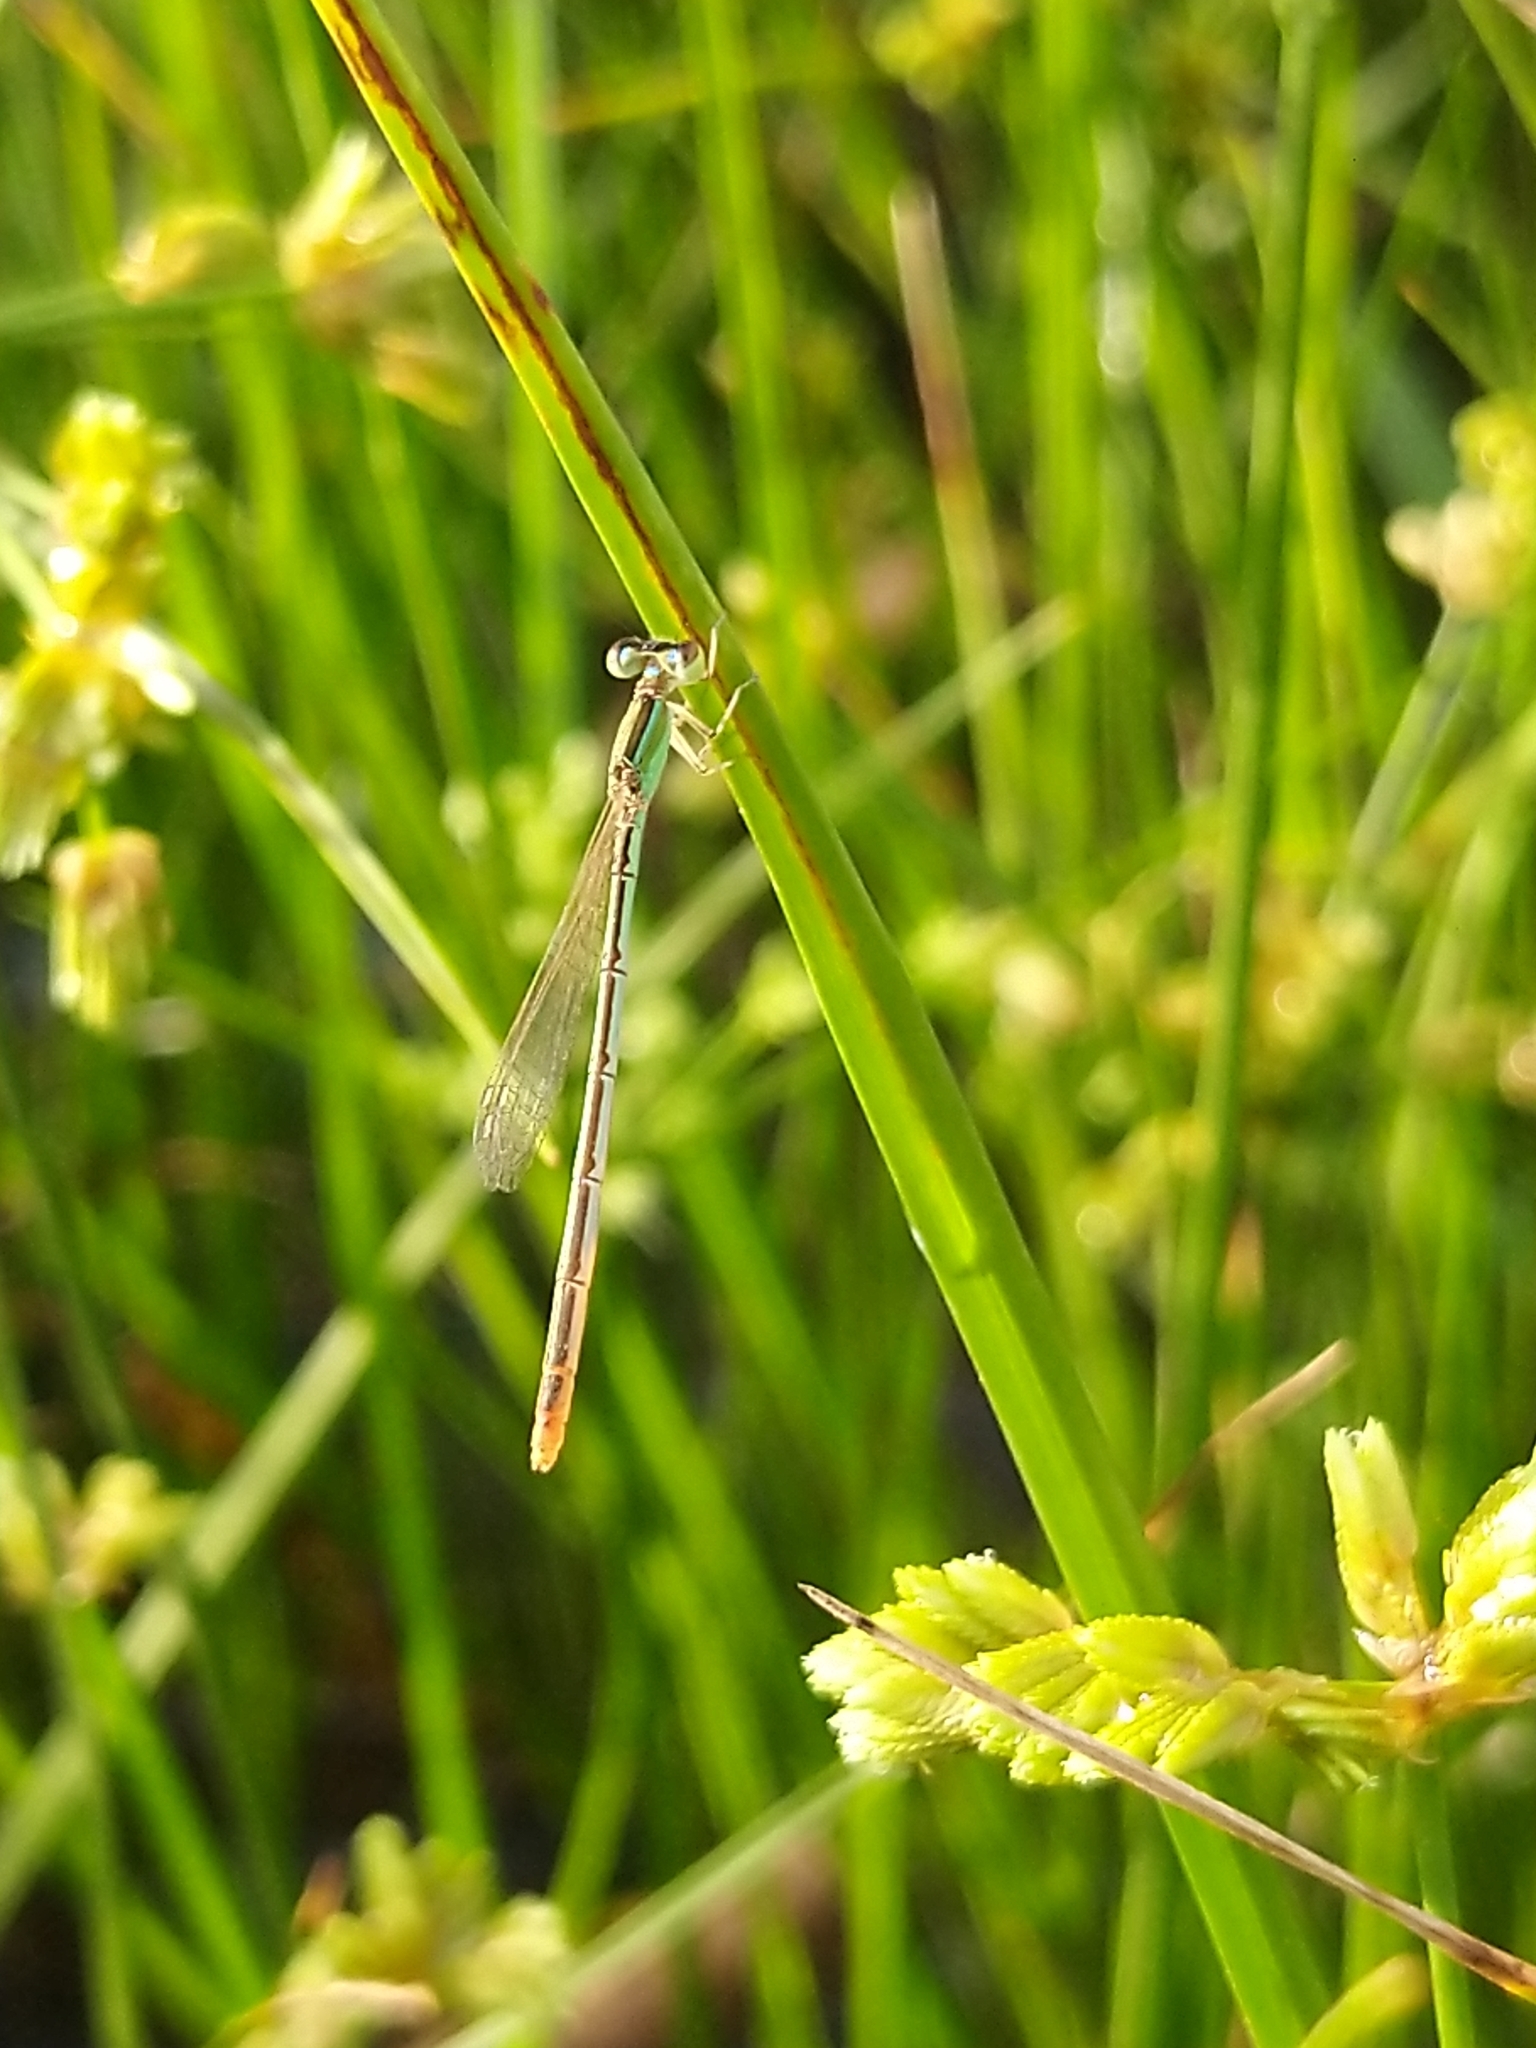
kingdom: Animalia
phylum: Arthropoda
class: Insecta
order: Odonata
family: Coenagrionidae
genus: Agriocnemis
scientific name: Agriocnemis pygmaea
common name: Pygmy wisp
